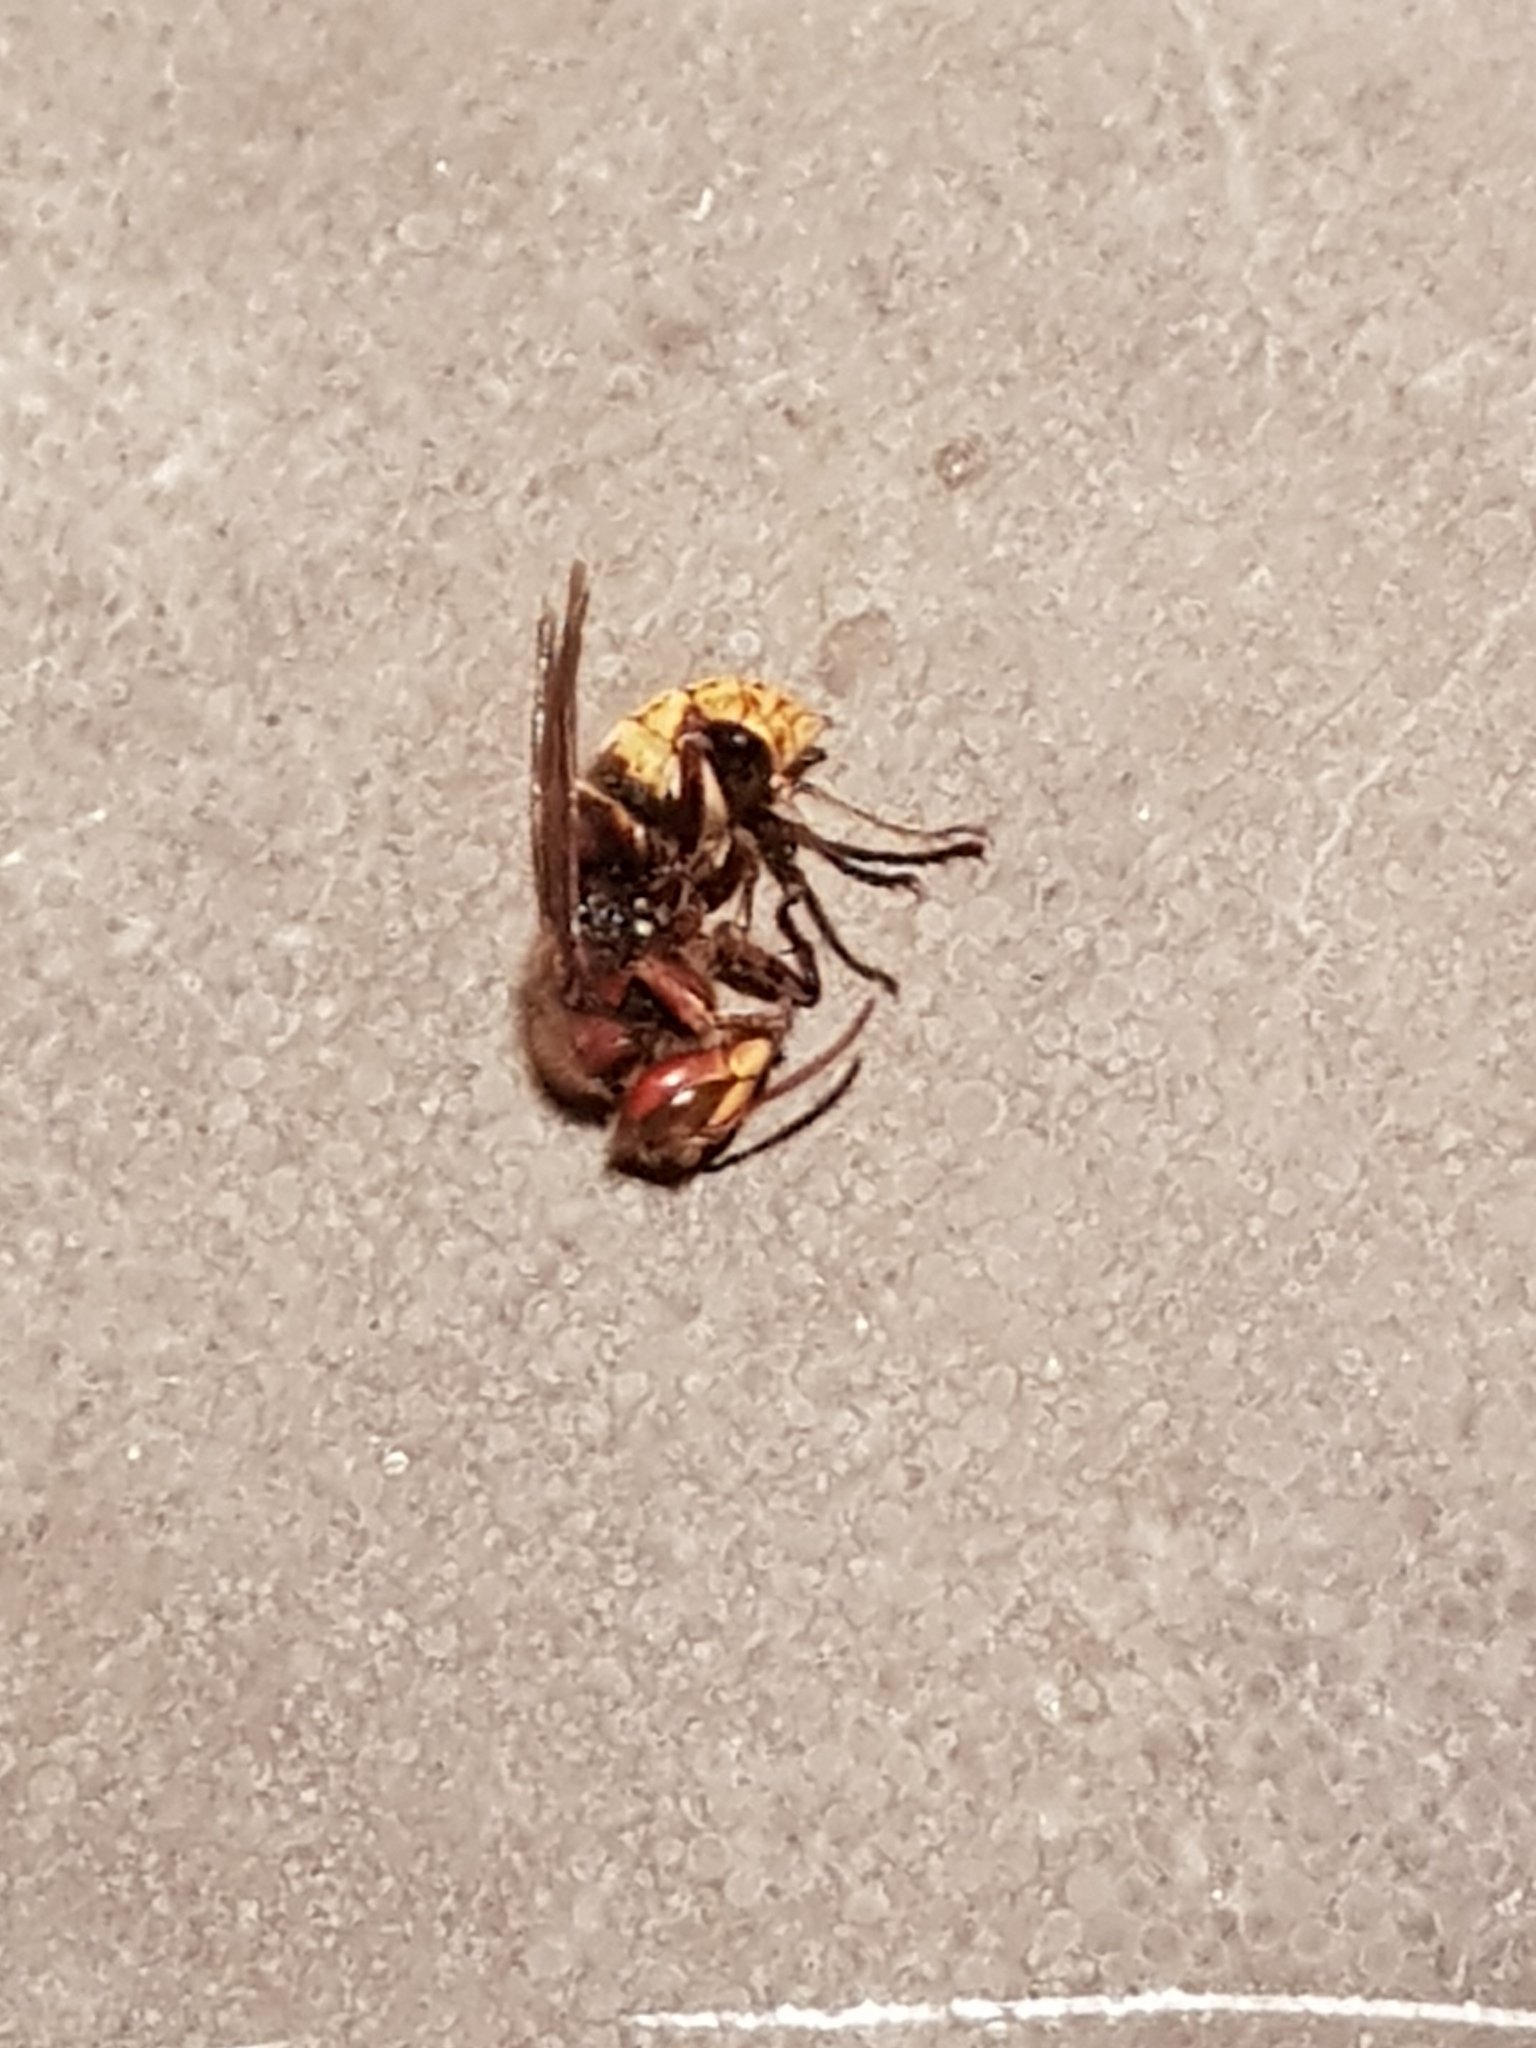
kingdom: Animalia
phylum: Arthropoda
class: Insecta
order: Hymenoptera
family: Vespidae
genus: Vespa
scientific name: Vespa crabro
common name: Hornet
